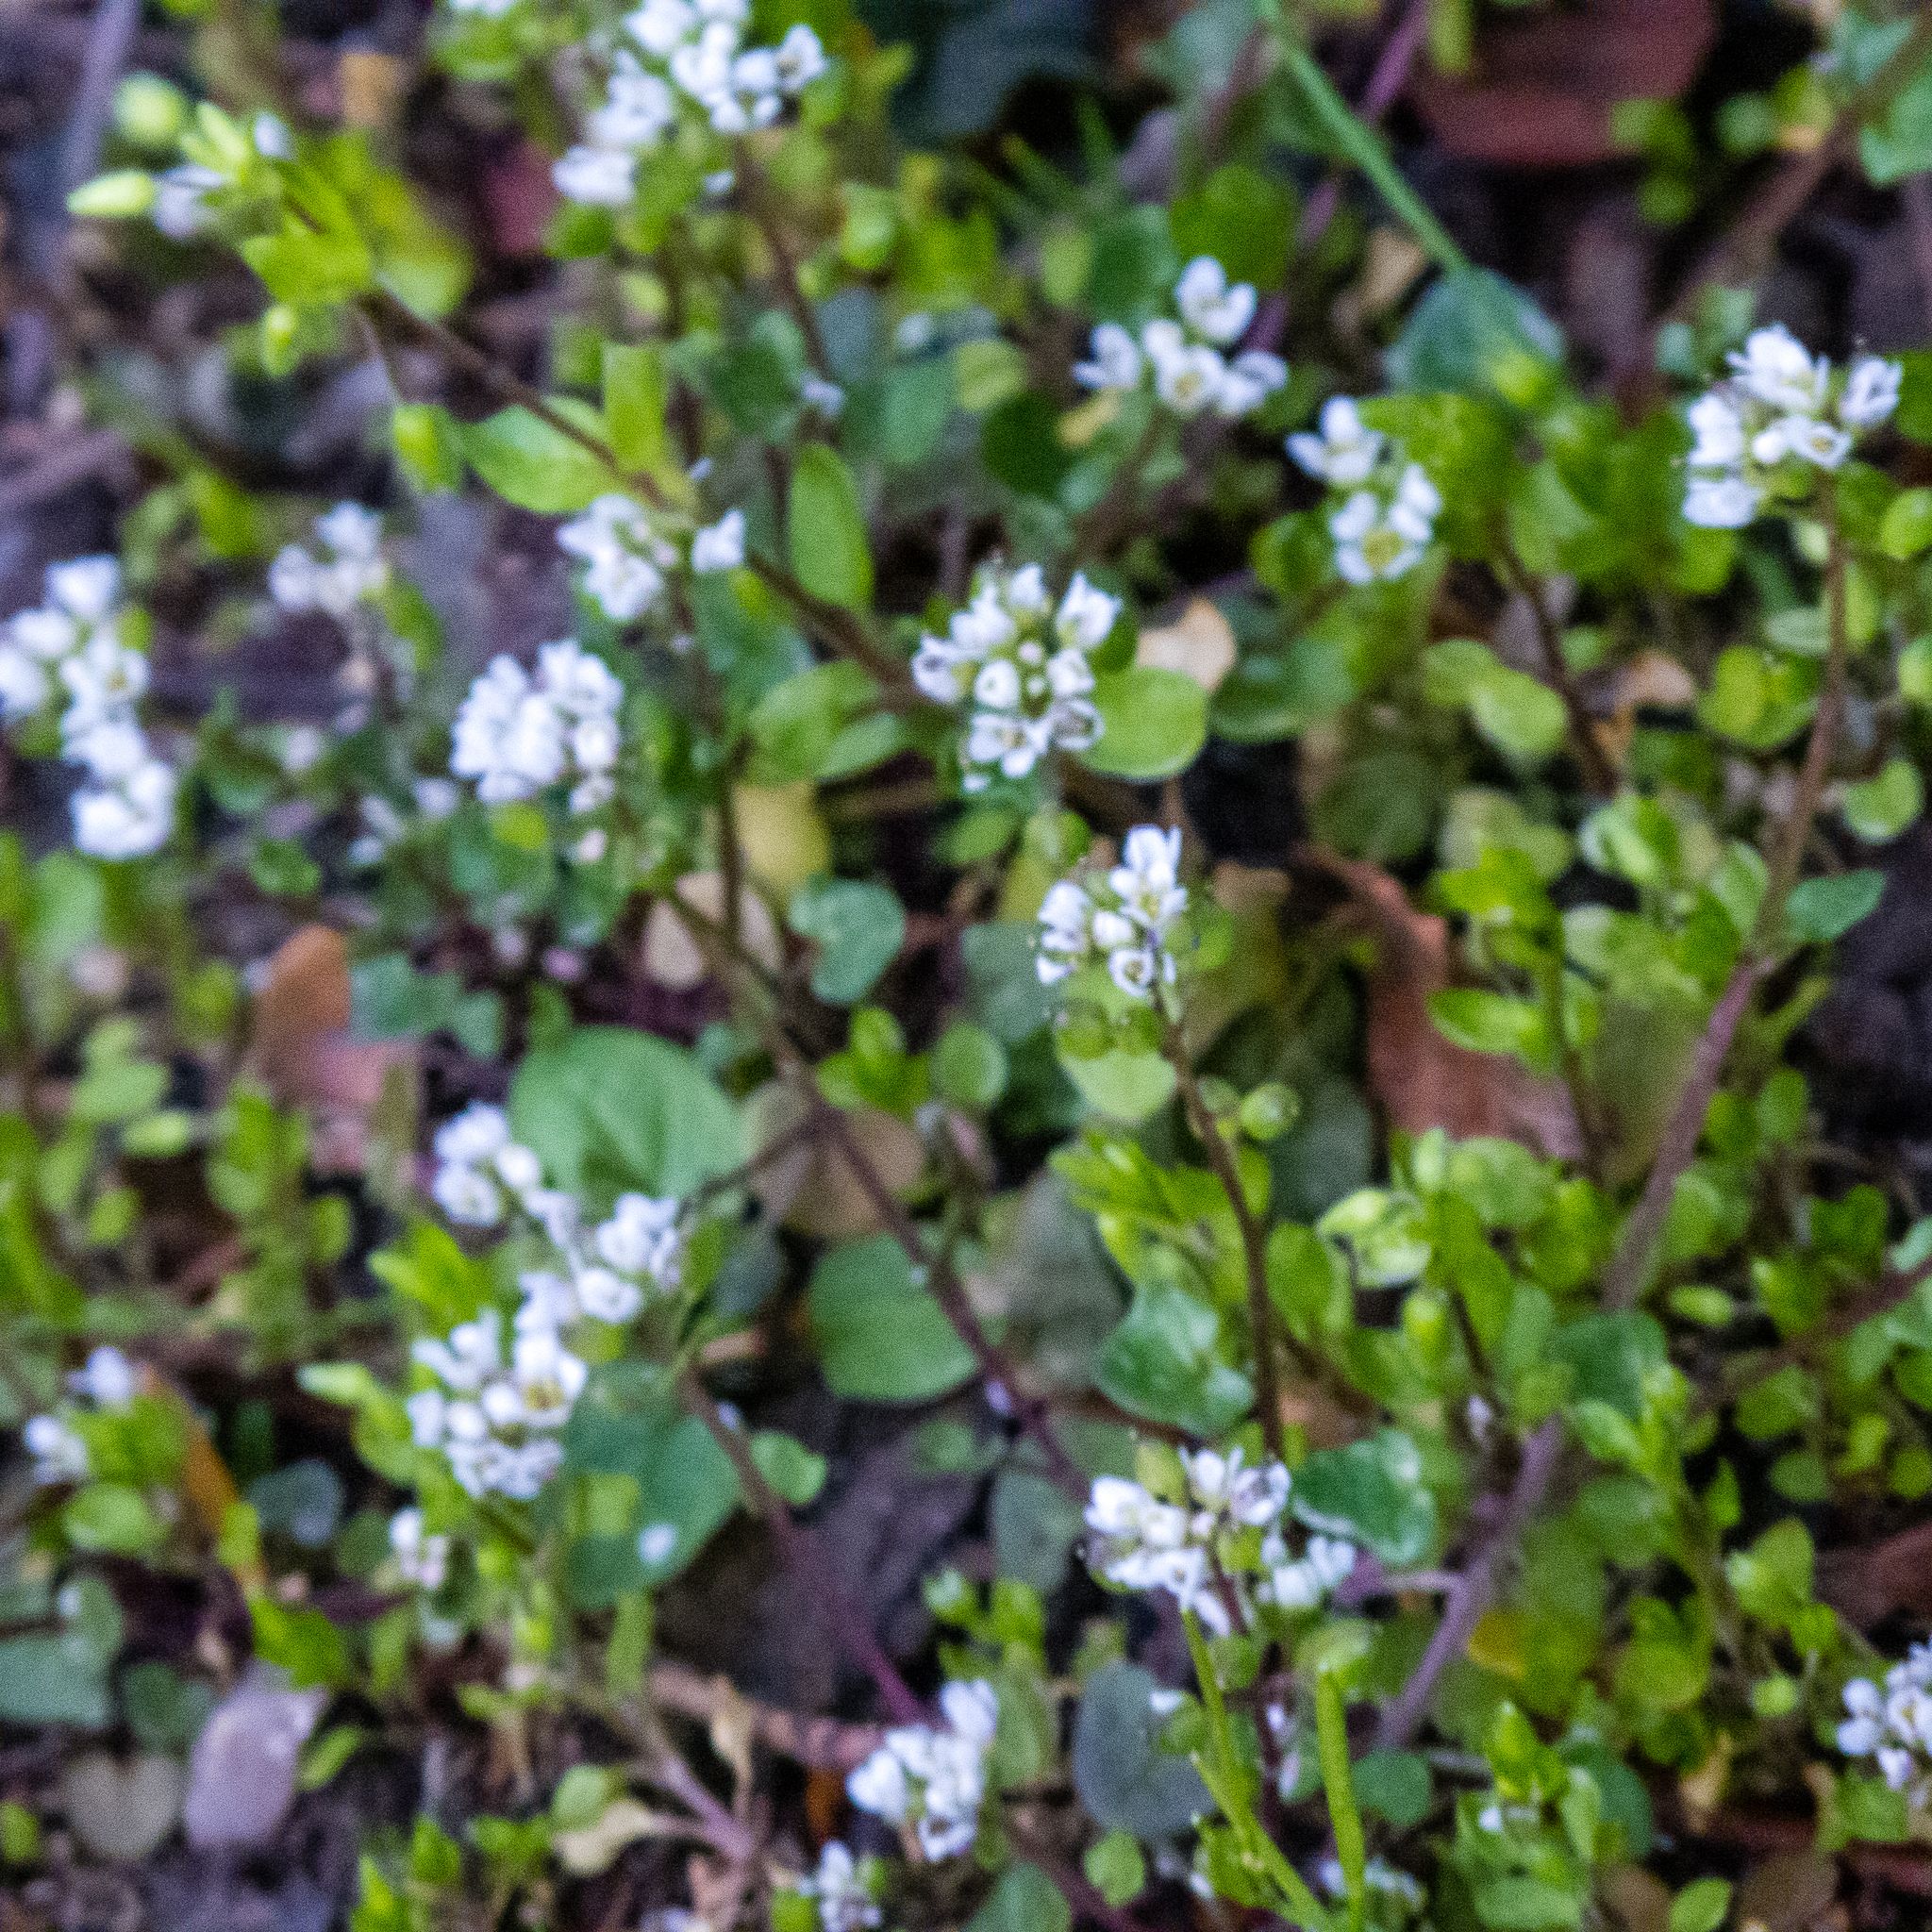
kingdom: Plantae
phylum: Tracheophyta
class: Magnoliopsida
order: Brassicales
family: Brassicaceae
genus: Cochlearia
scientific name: Cochlearia danica
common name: Early scurvygrass
